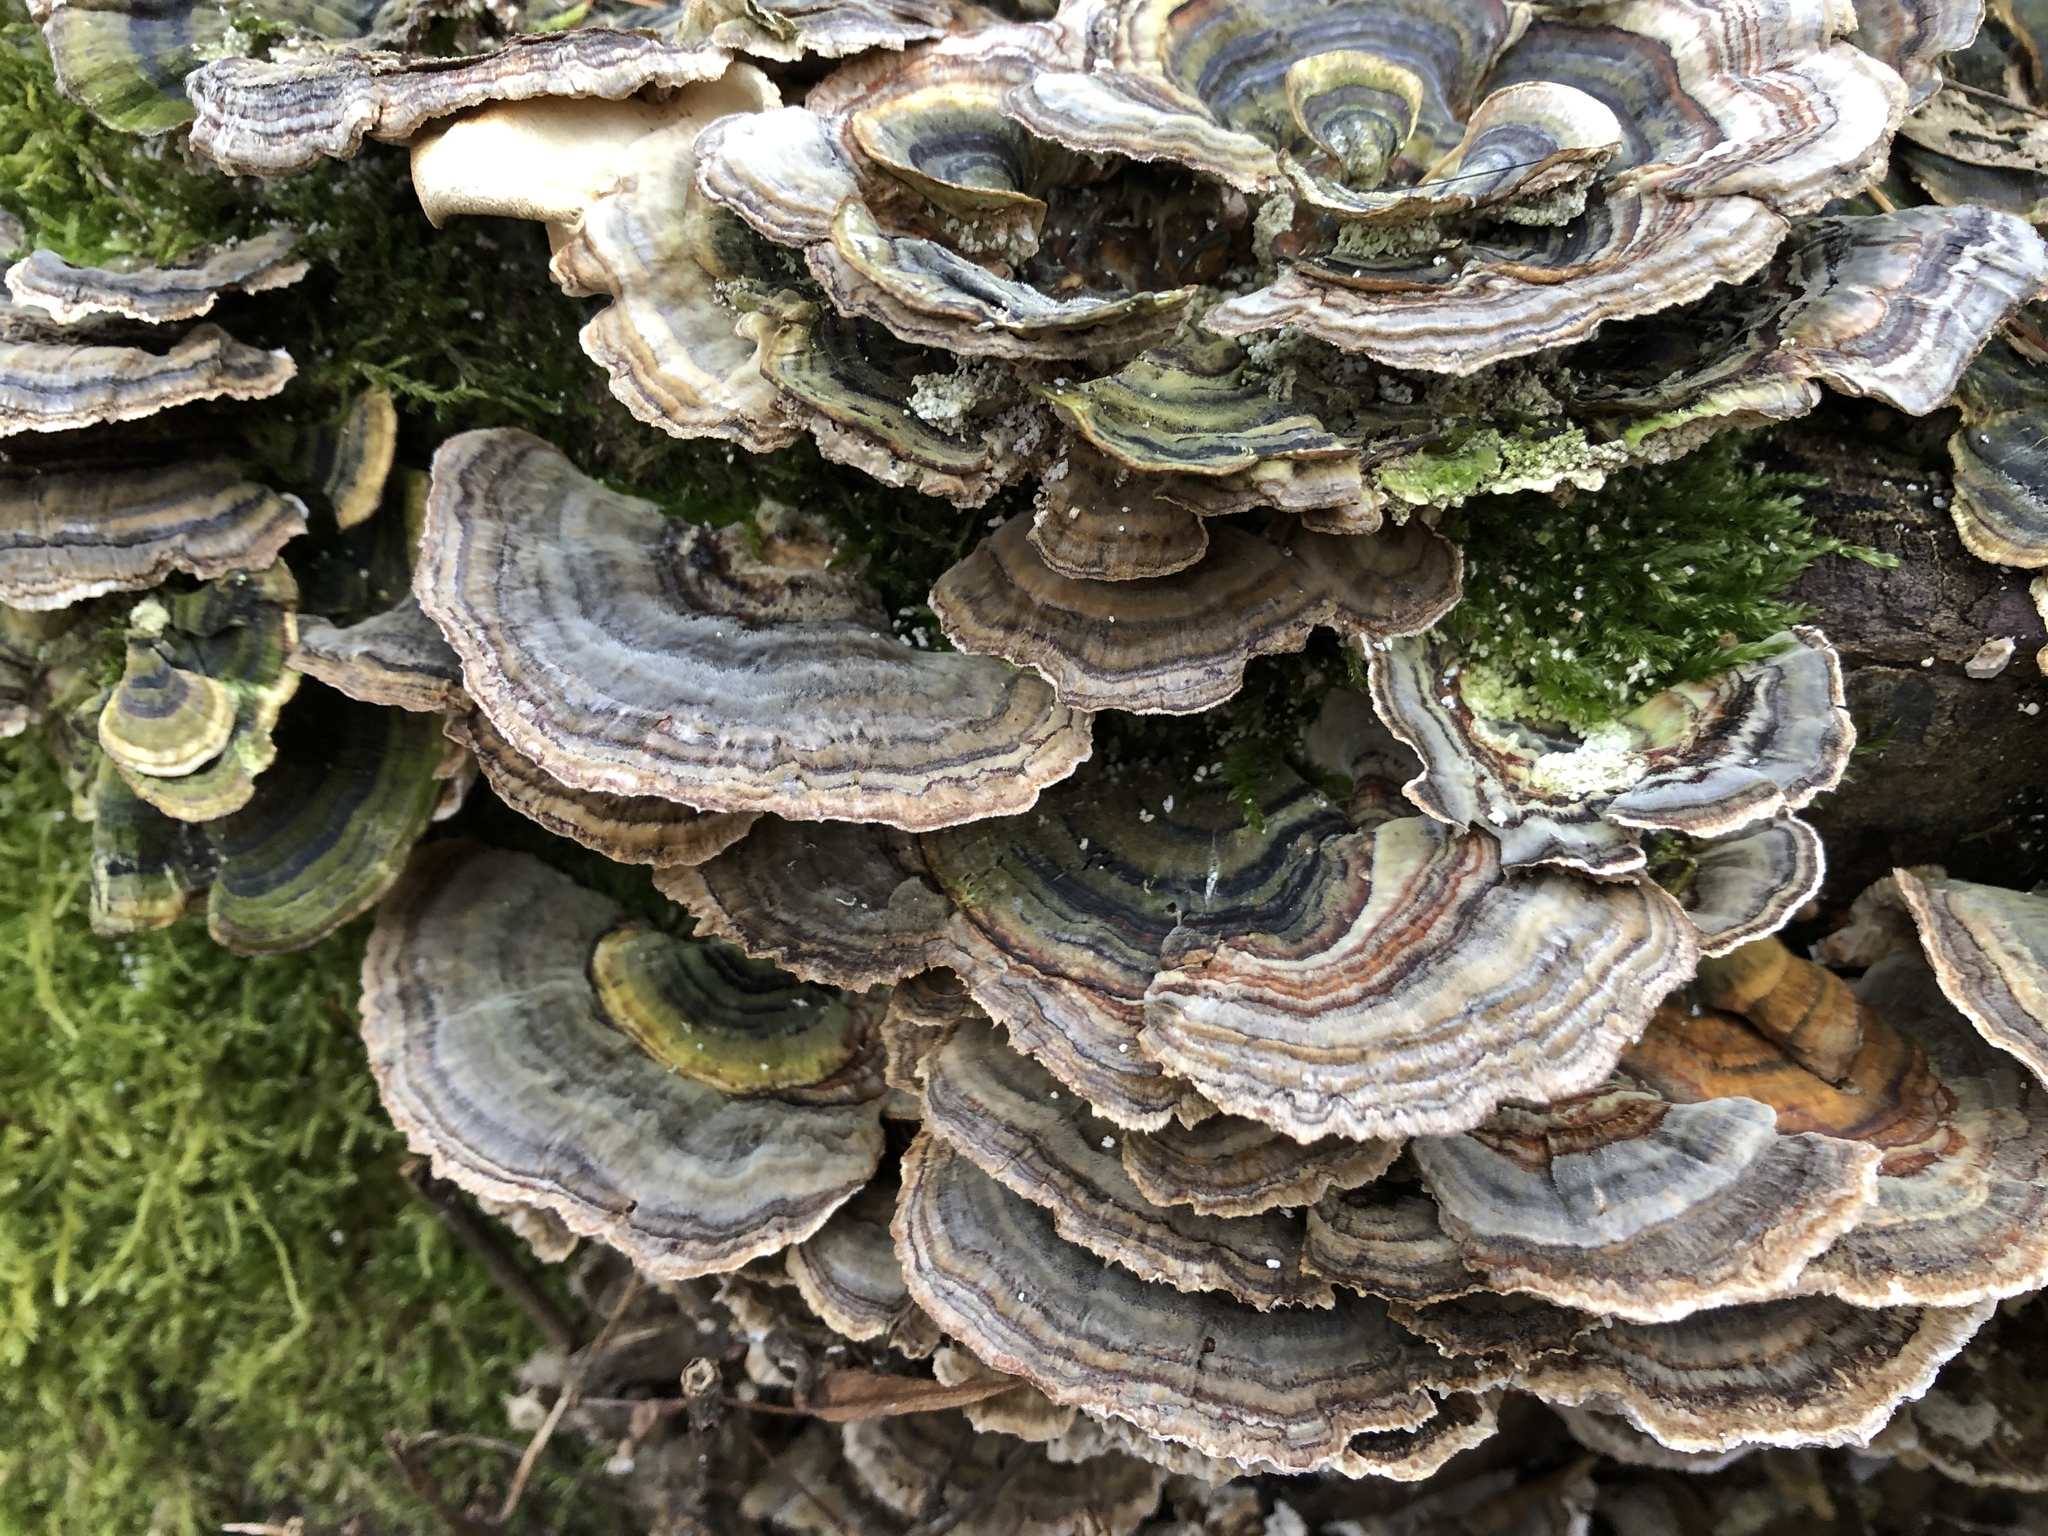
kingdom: Fungi
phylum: Basidiomycota
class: Agaricomycetes
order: Polyporales
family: Polyporaceae
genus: Trametes
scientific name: Trametes versicolor
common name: Turkeytail
